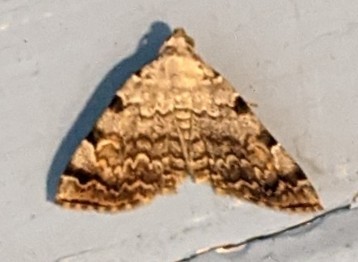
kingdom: Animalia
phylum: Arthropoda
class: Insecta
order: Lepidoptera
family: Erebidae
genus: Idia
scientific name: Idia americalis
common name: American idia moth
